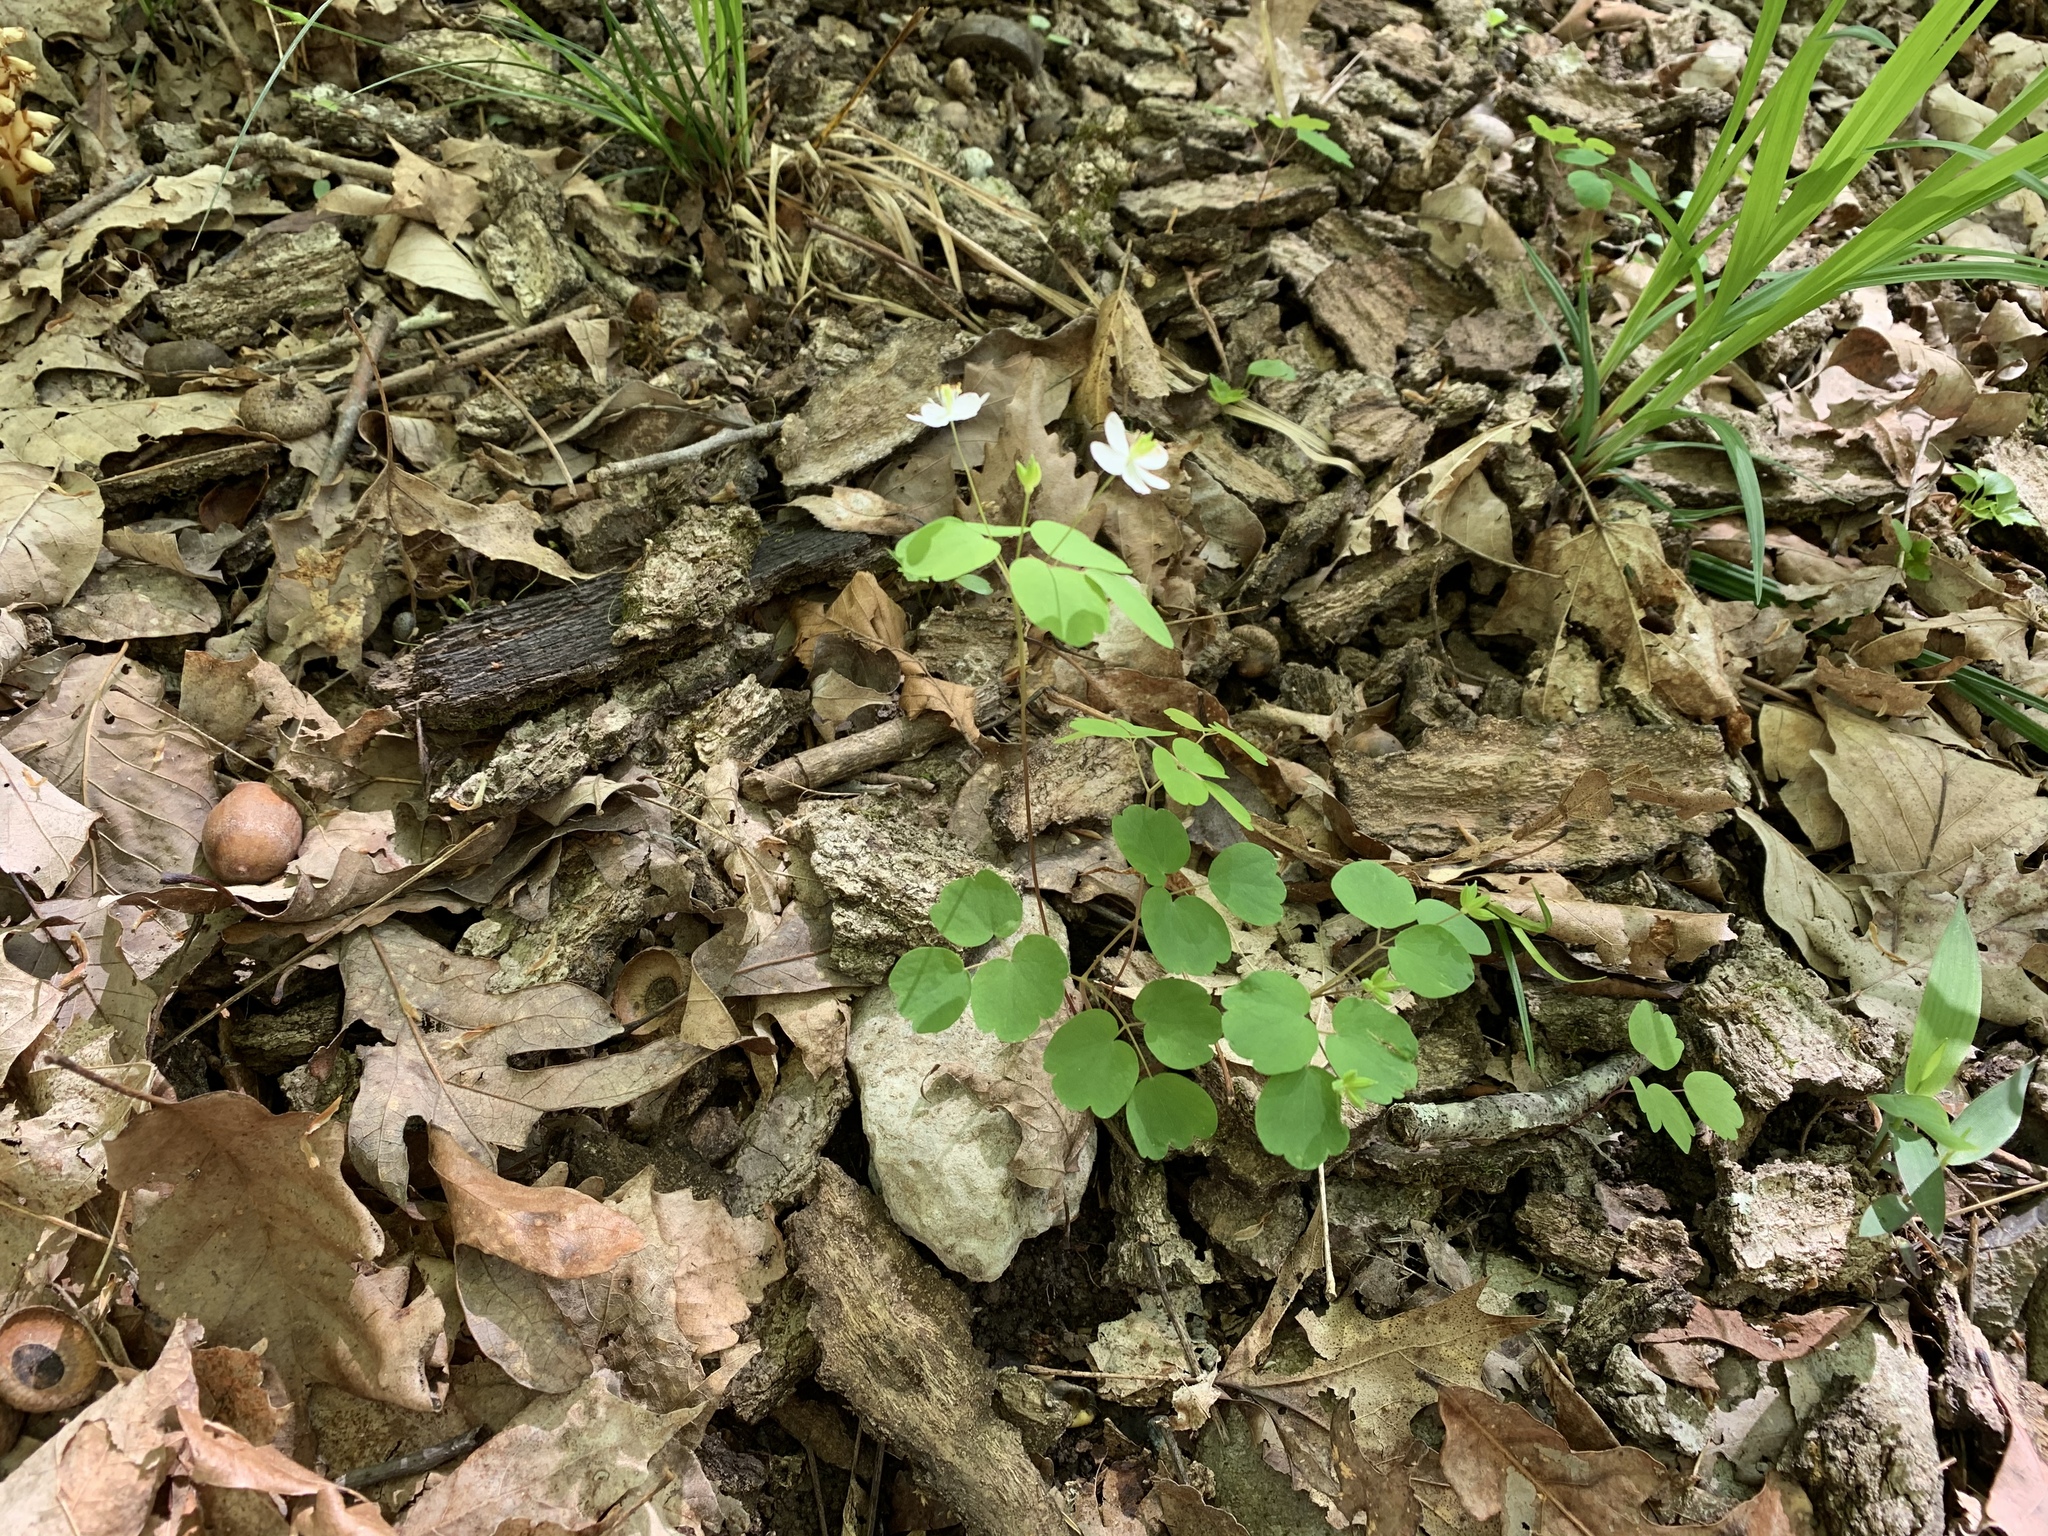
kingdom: Plantae
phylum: Tracheophyta
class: Magnoliopsida
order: Ranunculales
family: Ranunculaceae
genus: Thalictrum
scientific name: Thalictrum thalictroides
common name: Rue-anemone
